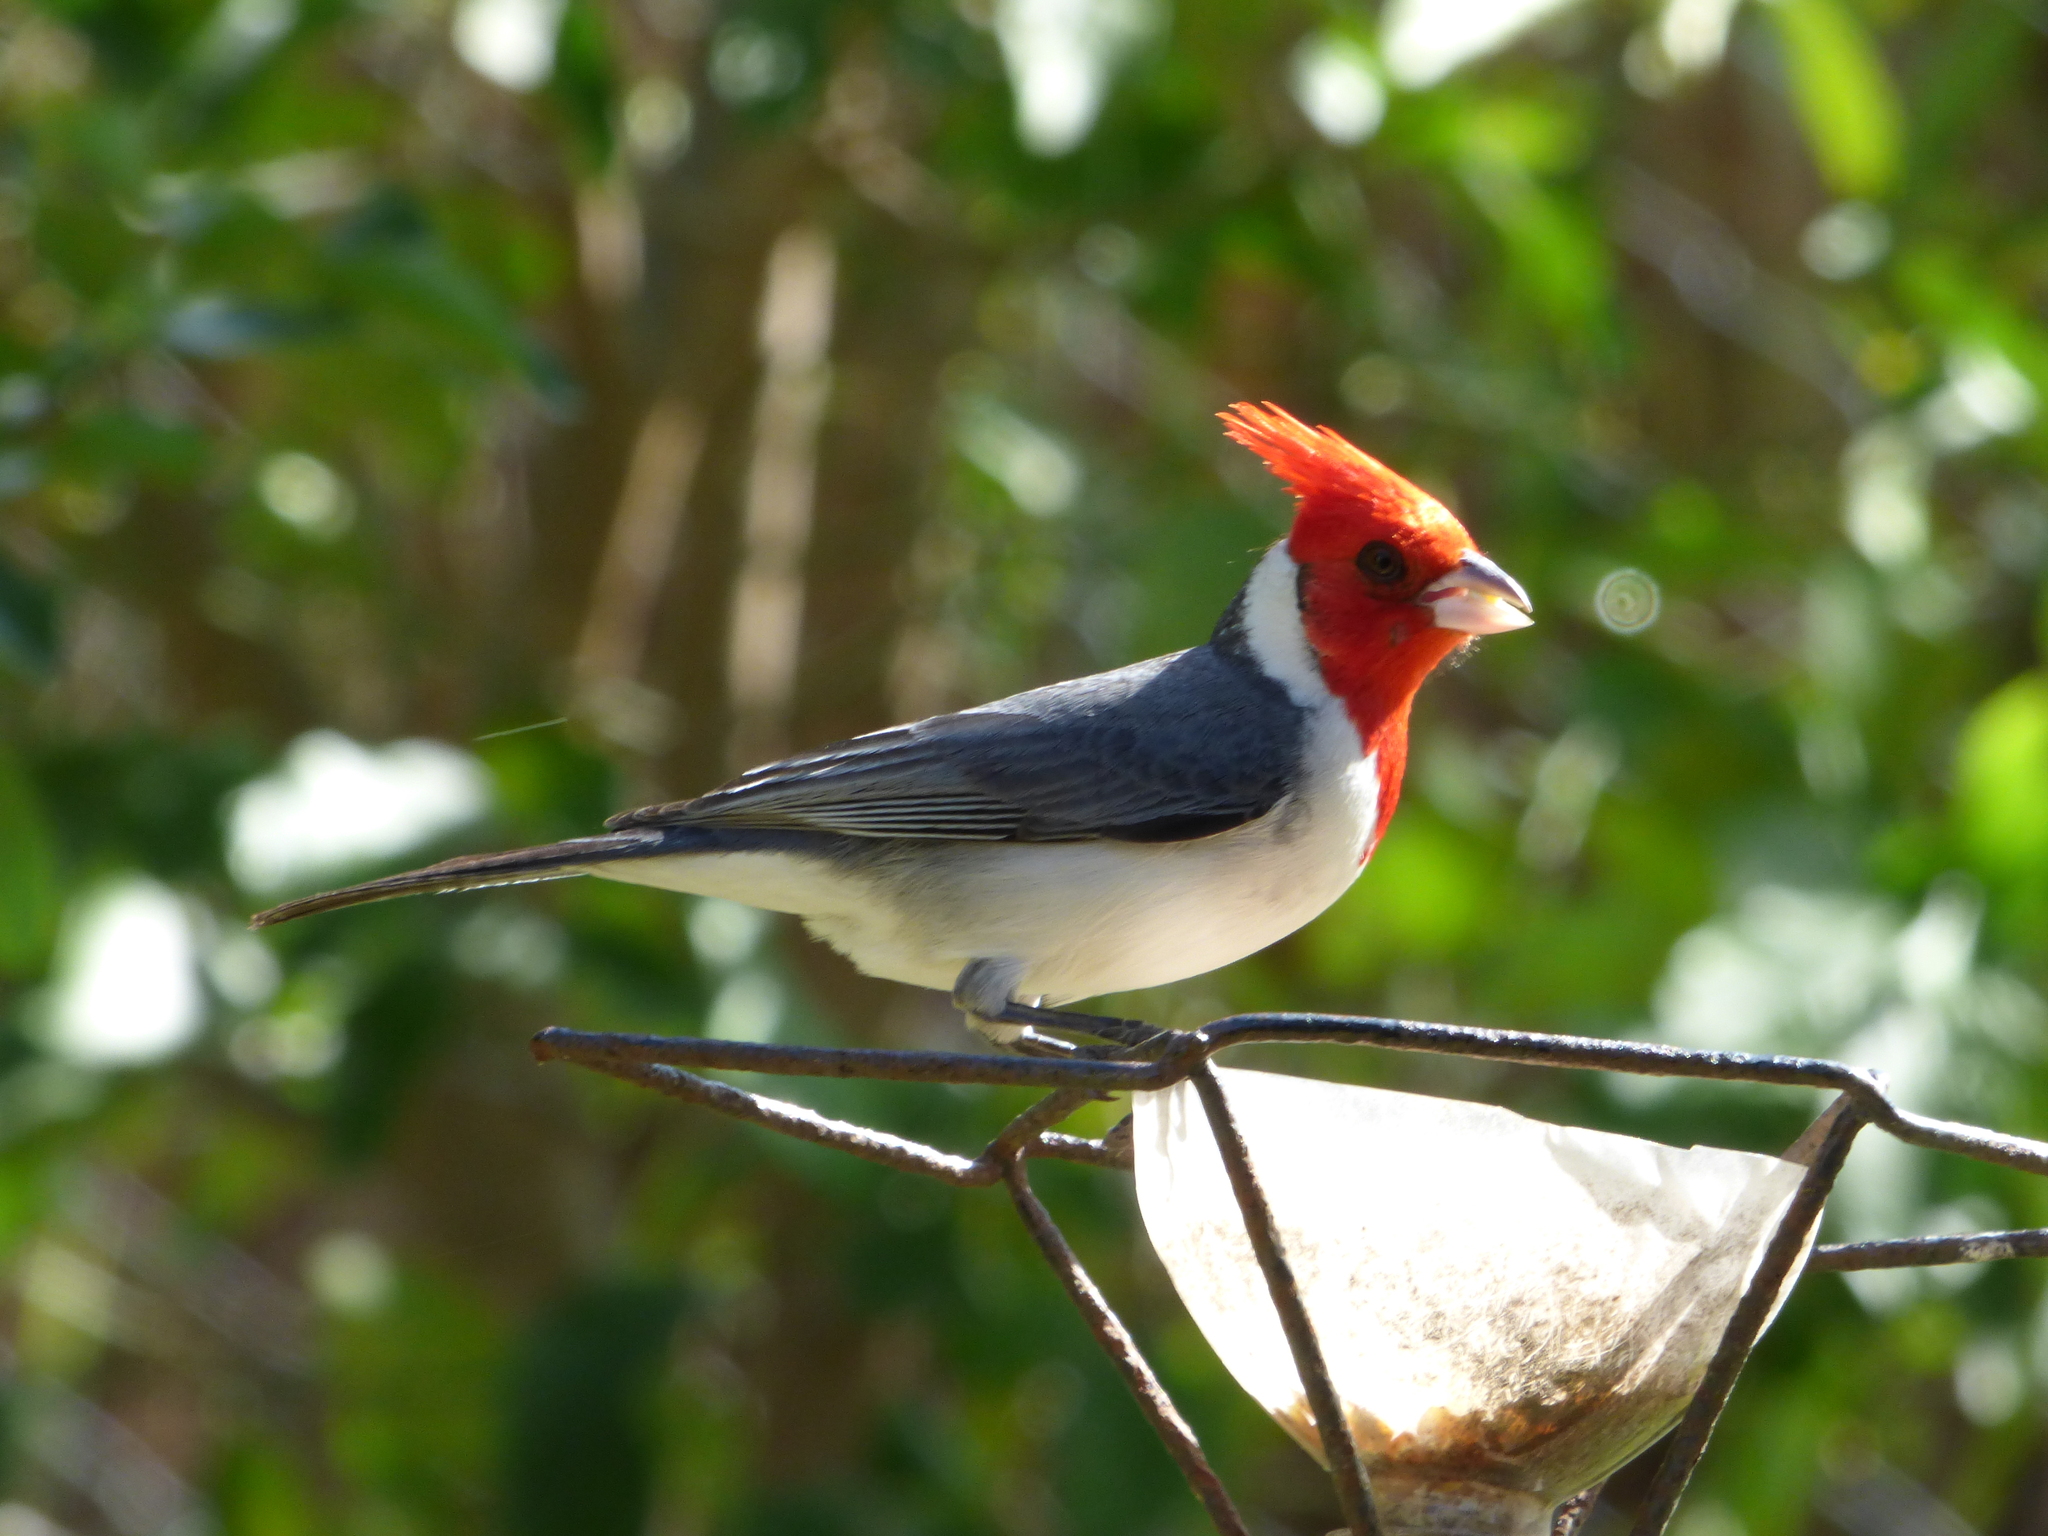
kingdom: Animalia
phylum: Chordata
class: Aves
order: Passeriformes
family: Thraupidae
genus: Paroaria
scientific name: Paroaria coronata
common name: Red-crested cardinal
